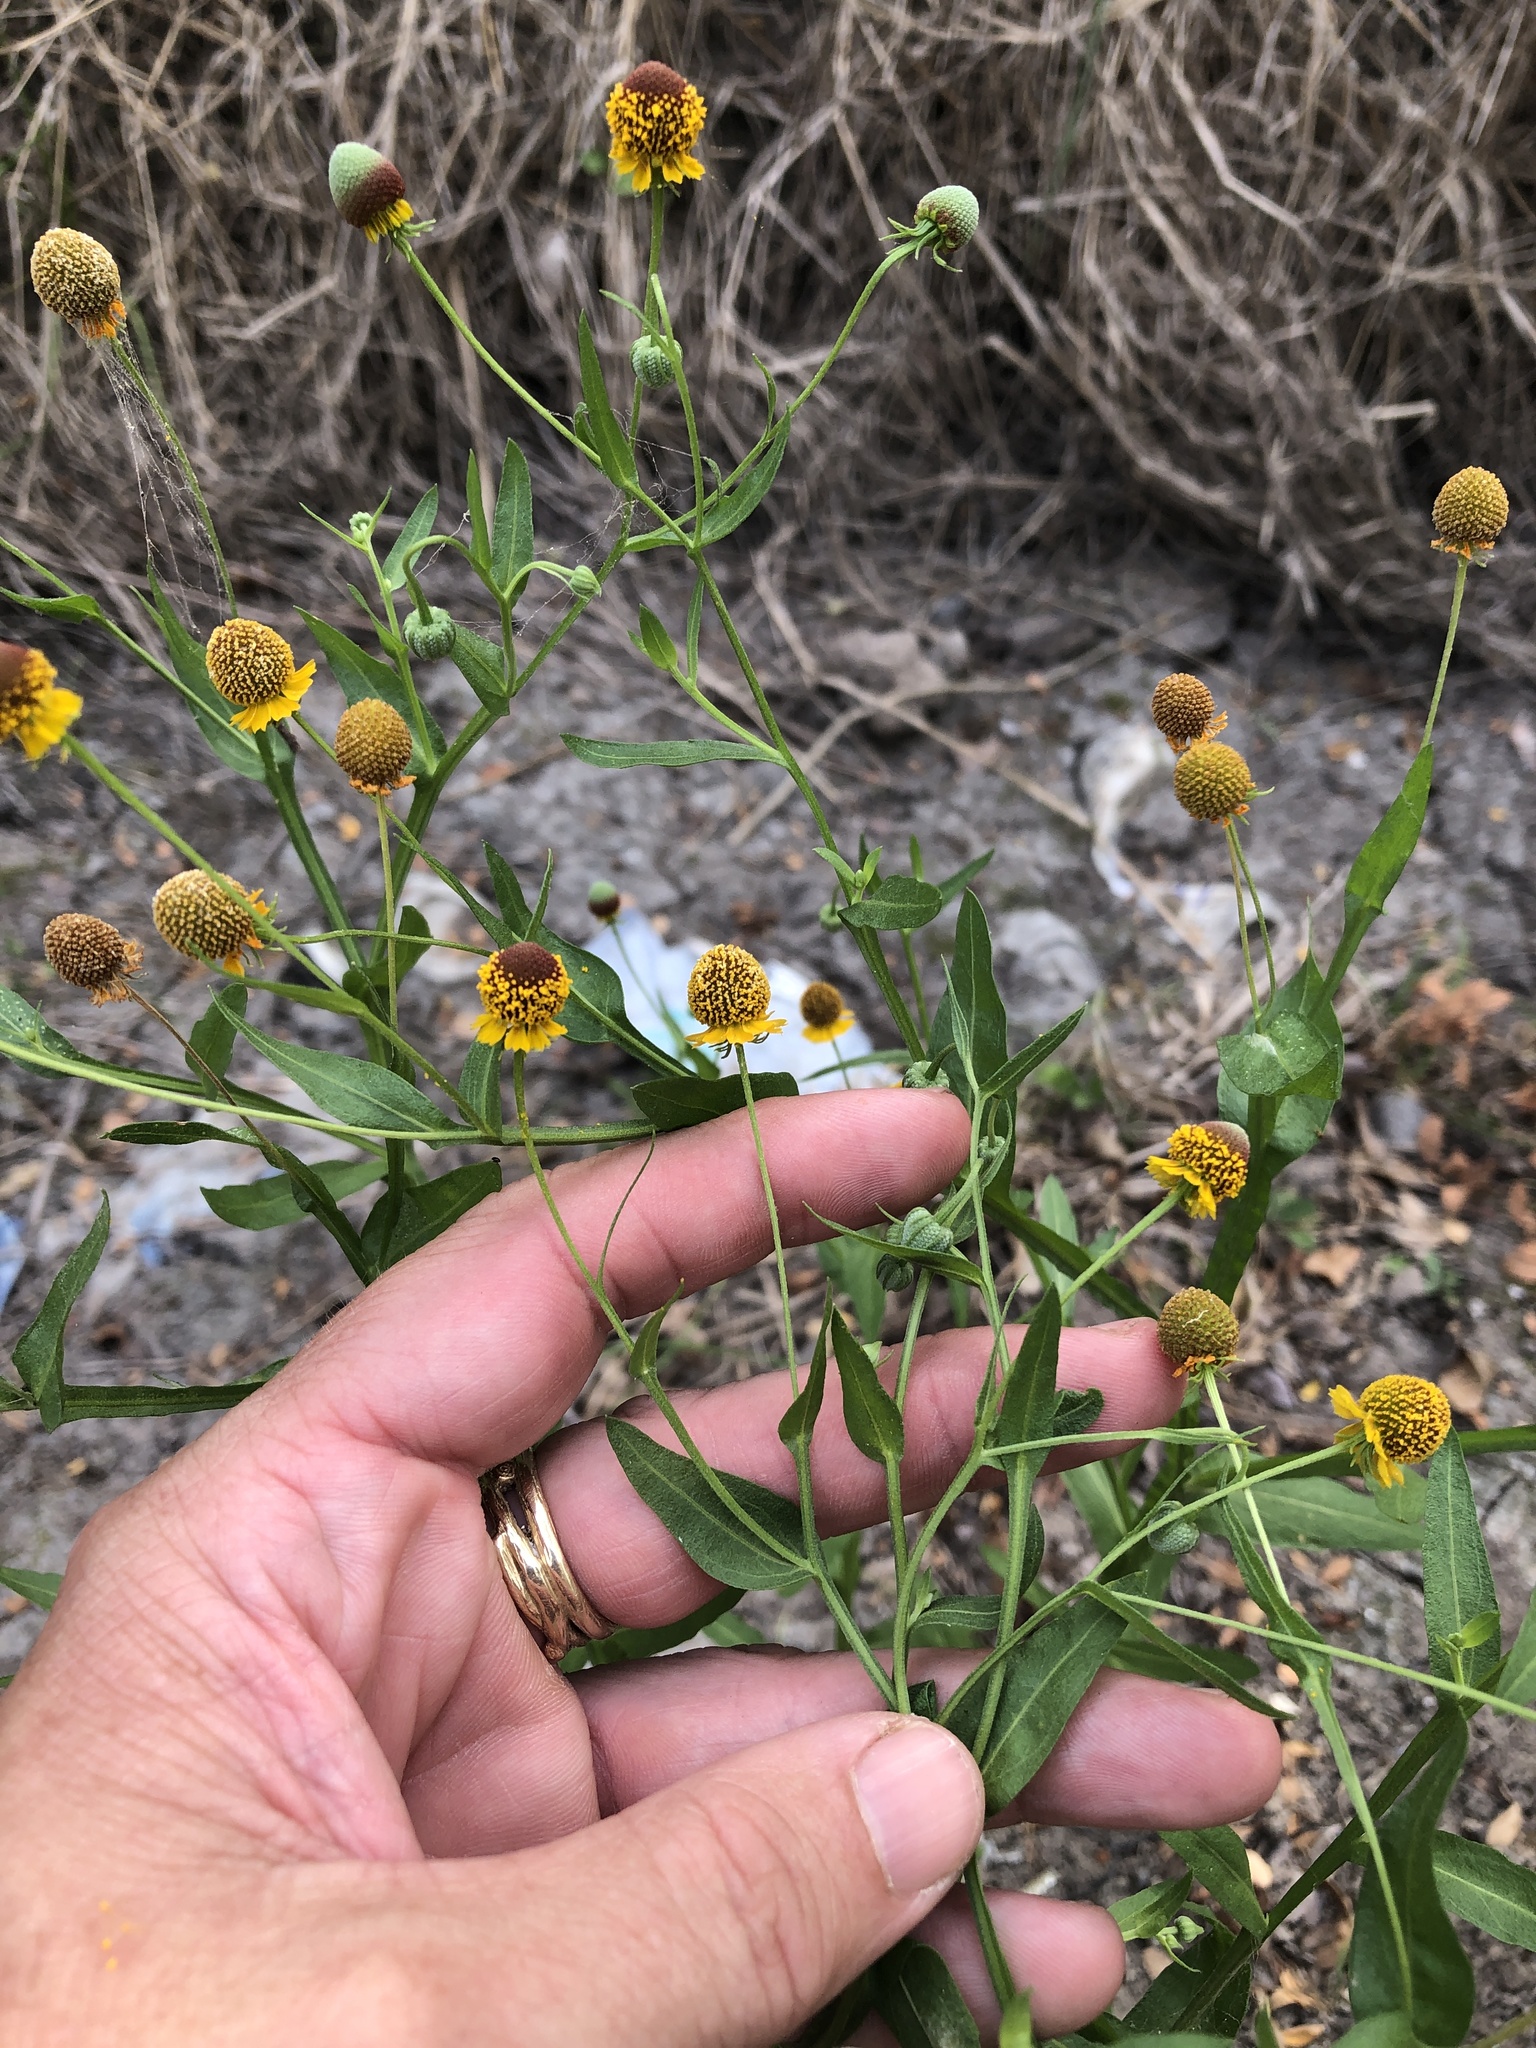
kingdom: Plantae
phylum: Tracheophyta
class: Magnoliopsida
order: Asterales
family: Asteraceae
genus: Helenium
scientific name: Helenium microcephalum
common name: Smallhead sneezeweed
